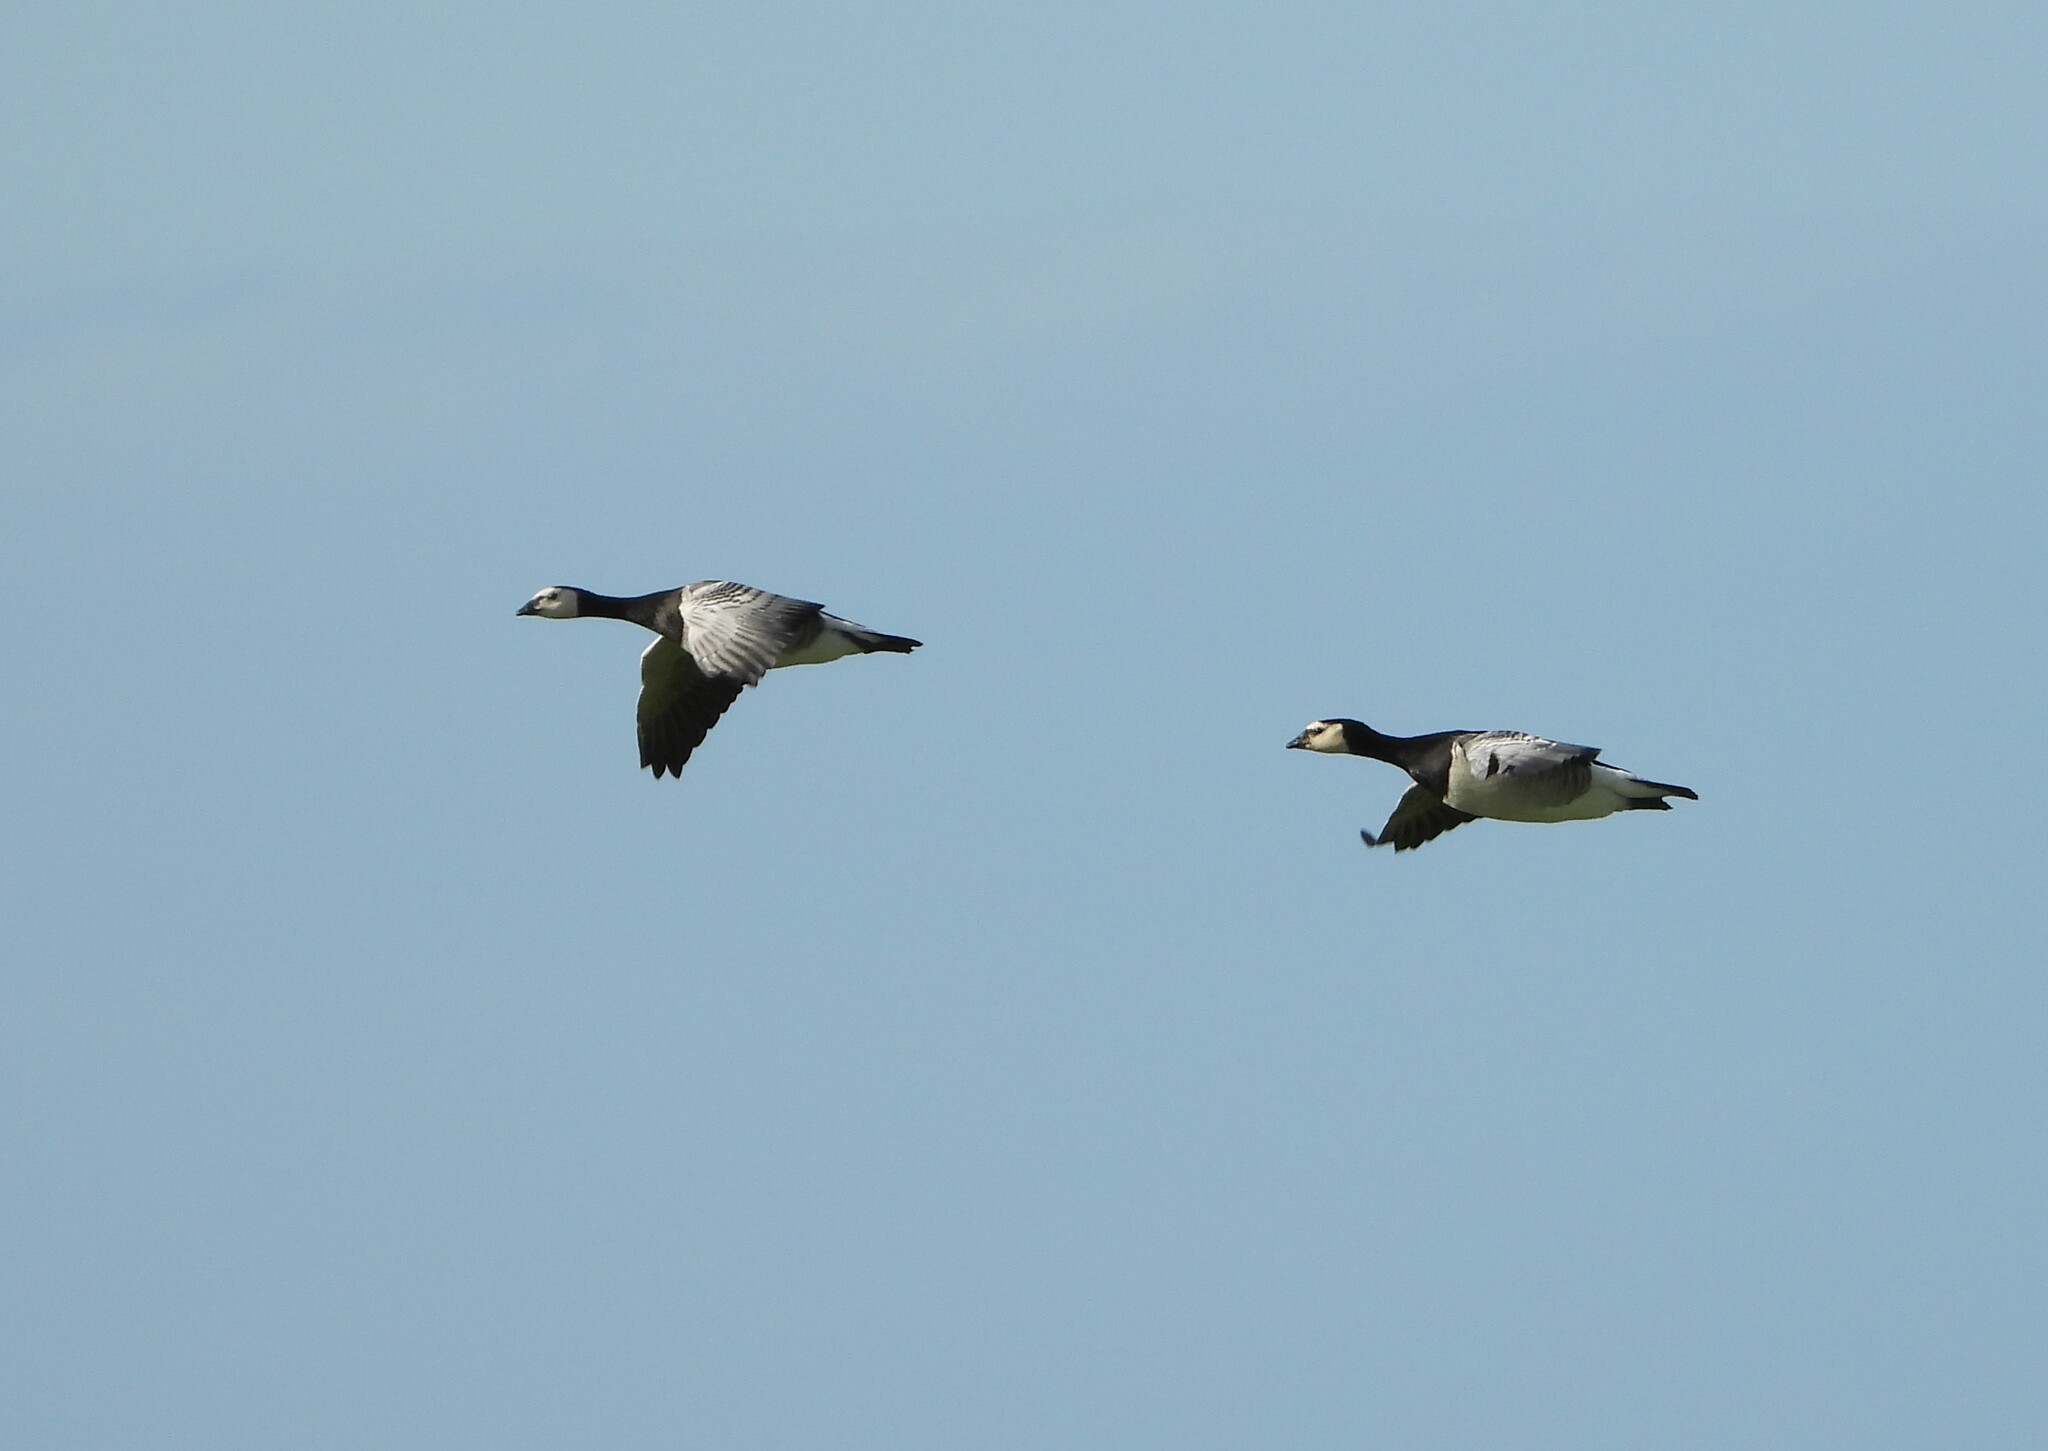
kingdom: Animalia
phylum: Chordata
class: Aves
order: Anseriformes
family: Anatidae
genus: Branta
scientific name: Branta leucopsis
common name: Barnacle goose
